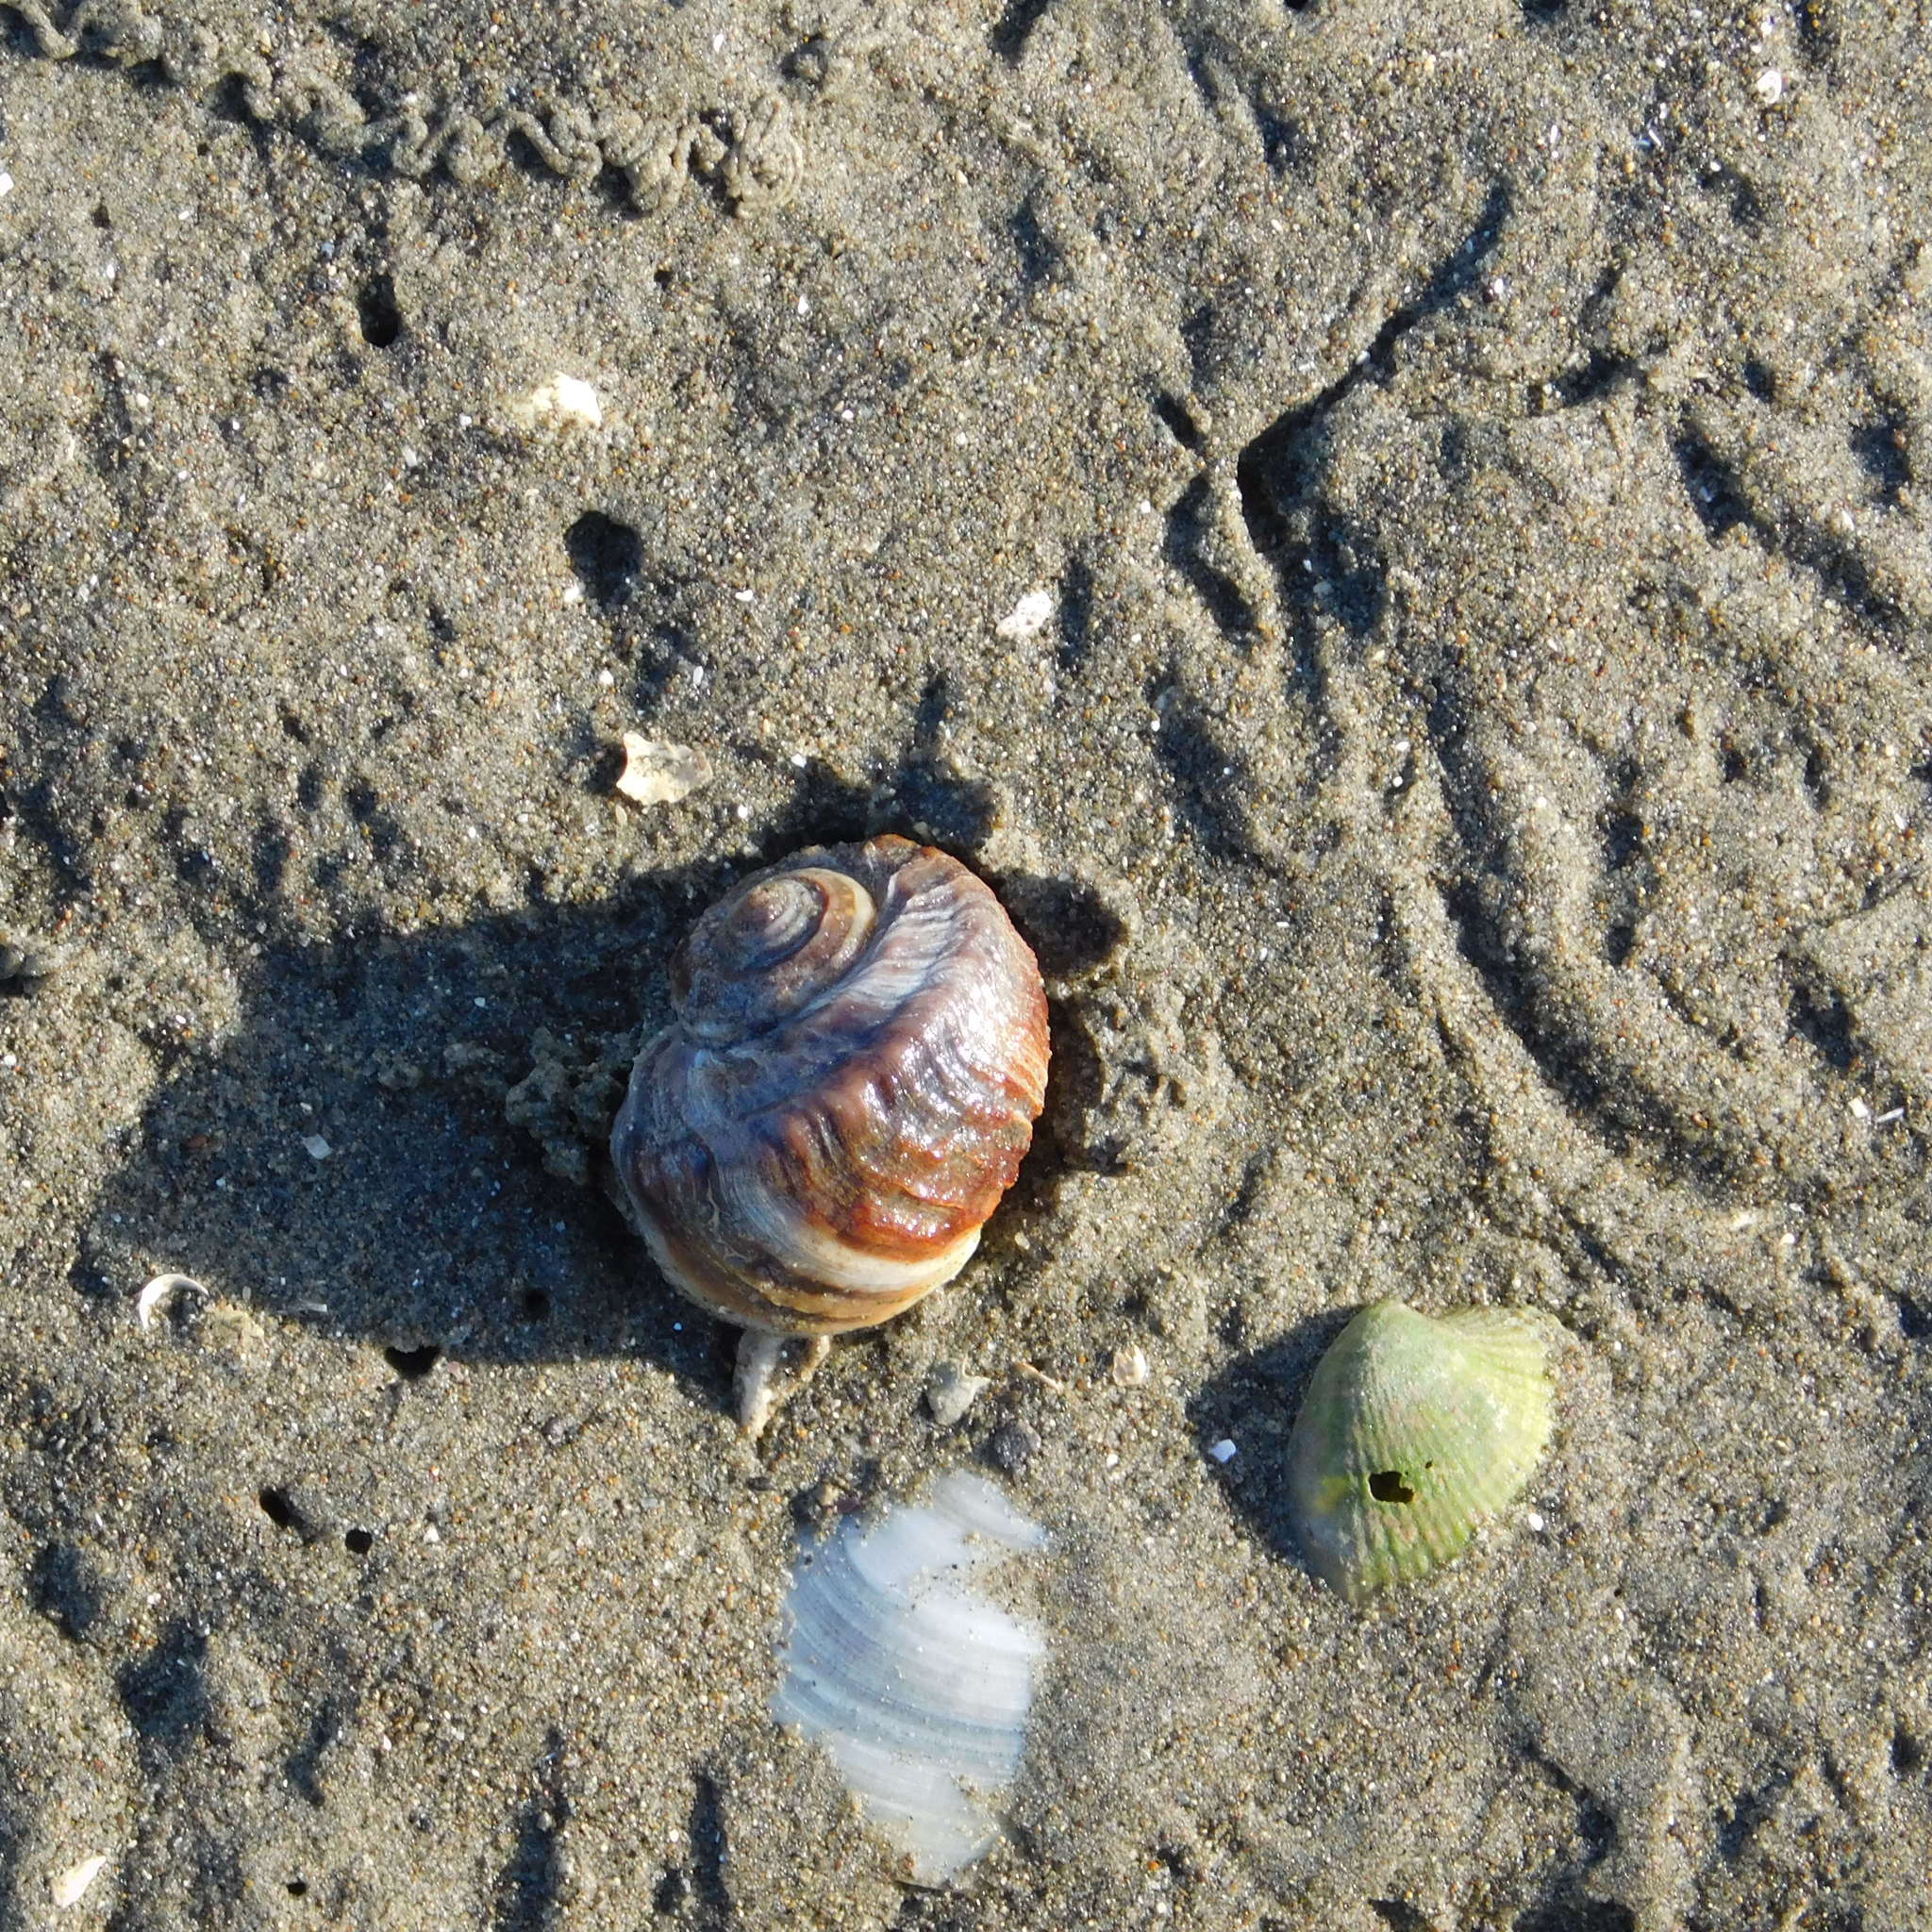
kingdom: Animalia
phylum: Mollusca
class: Gastropoda
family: Amphibolidae
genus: Amphibola
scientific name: Amphibola crenata
